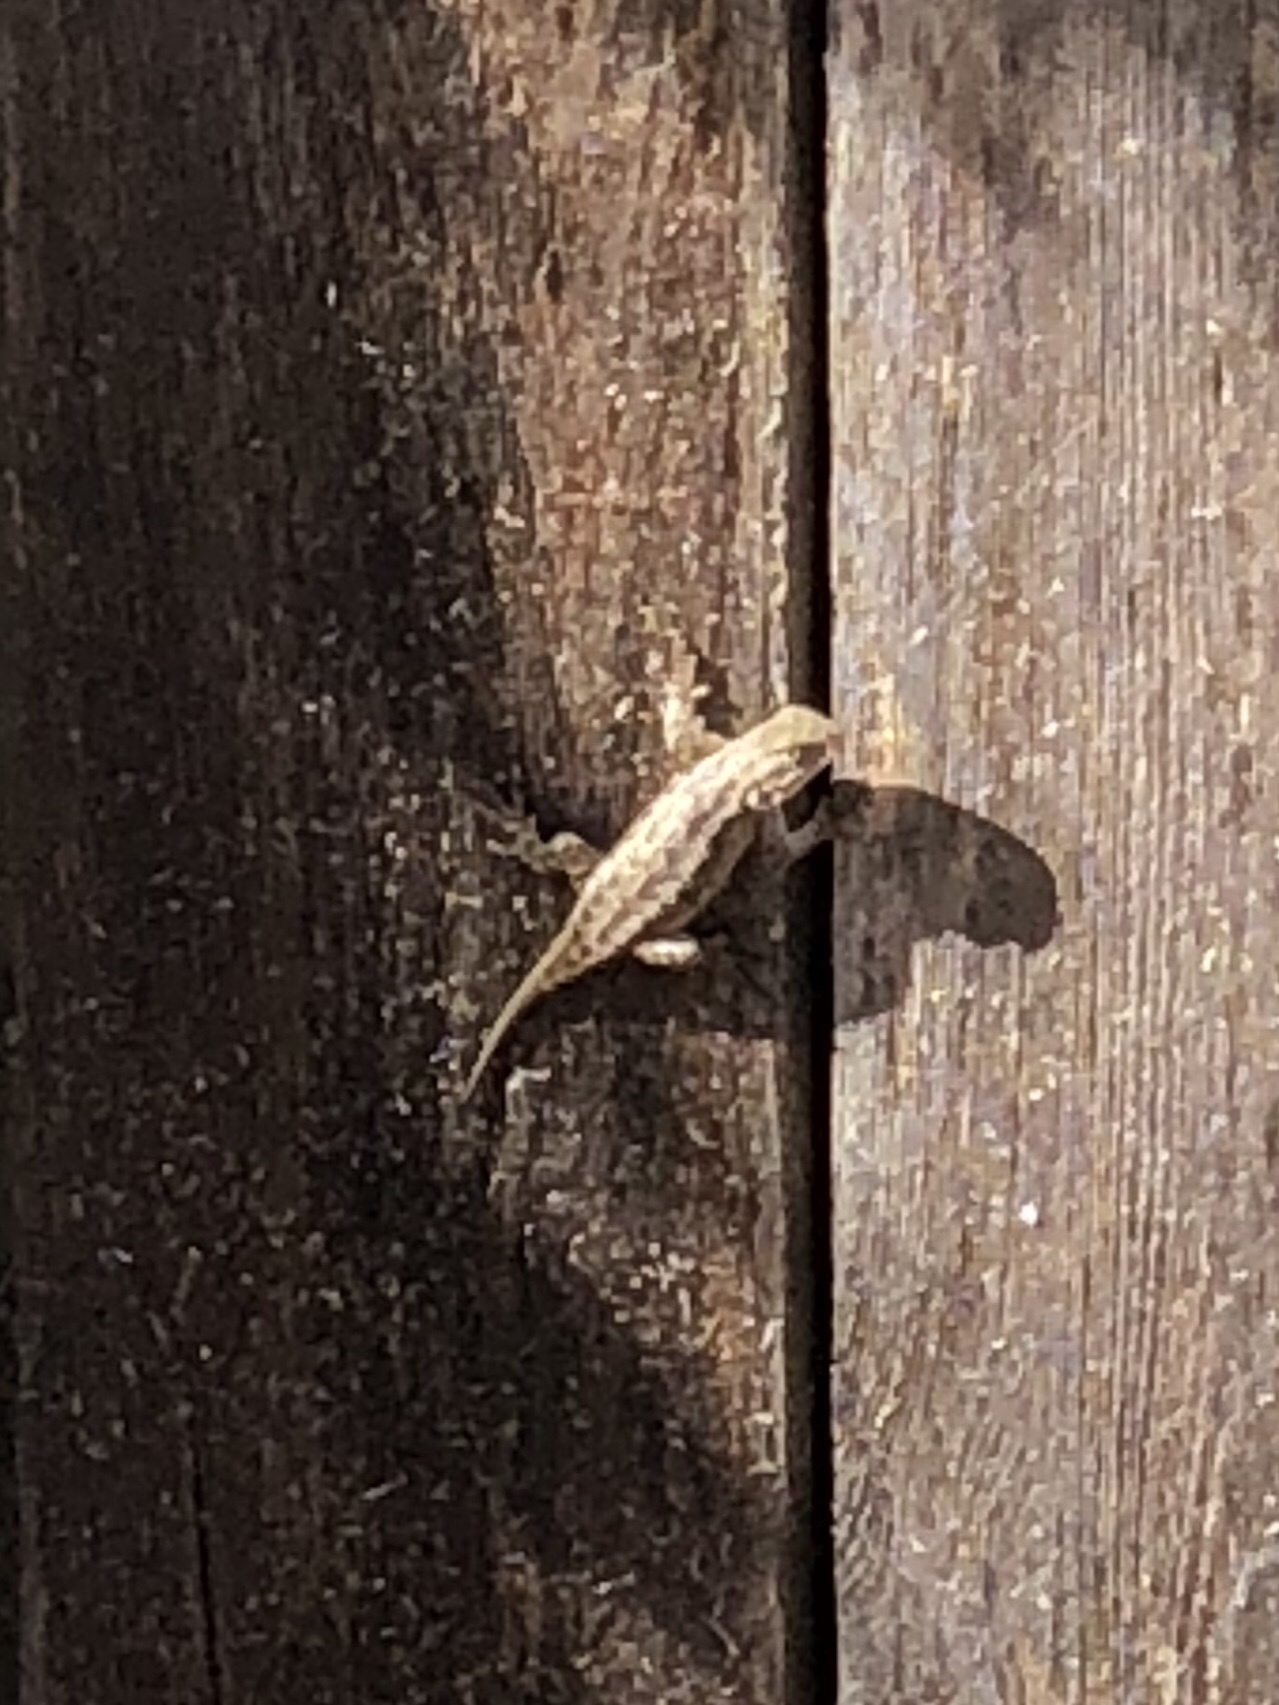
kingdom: Animalia
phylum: Chordata
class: Squamata
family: Phrynosomatidae
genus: Sceloporus
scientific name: Sceloporus occidentalis
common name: Western fence lizard
